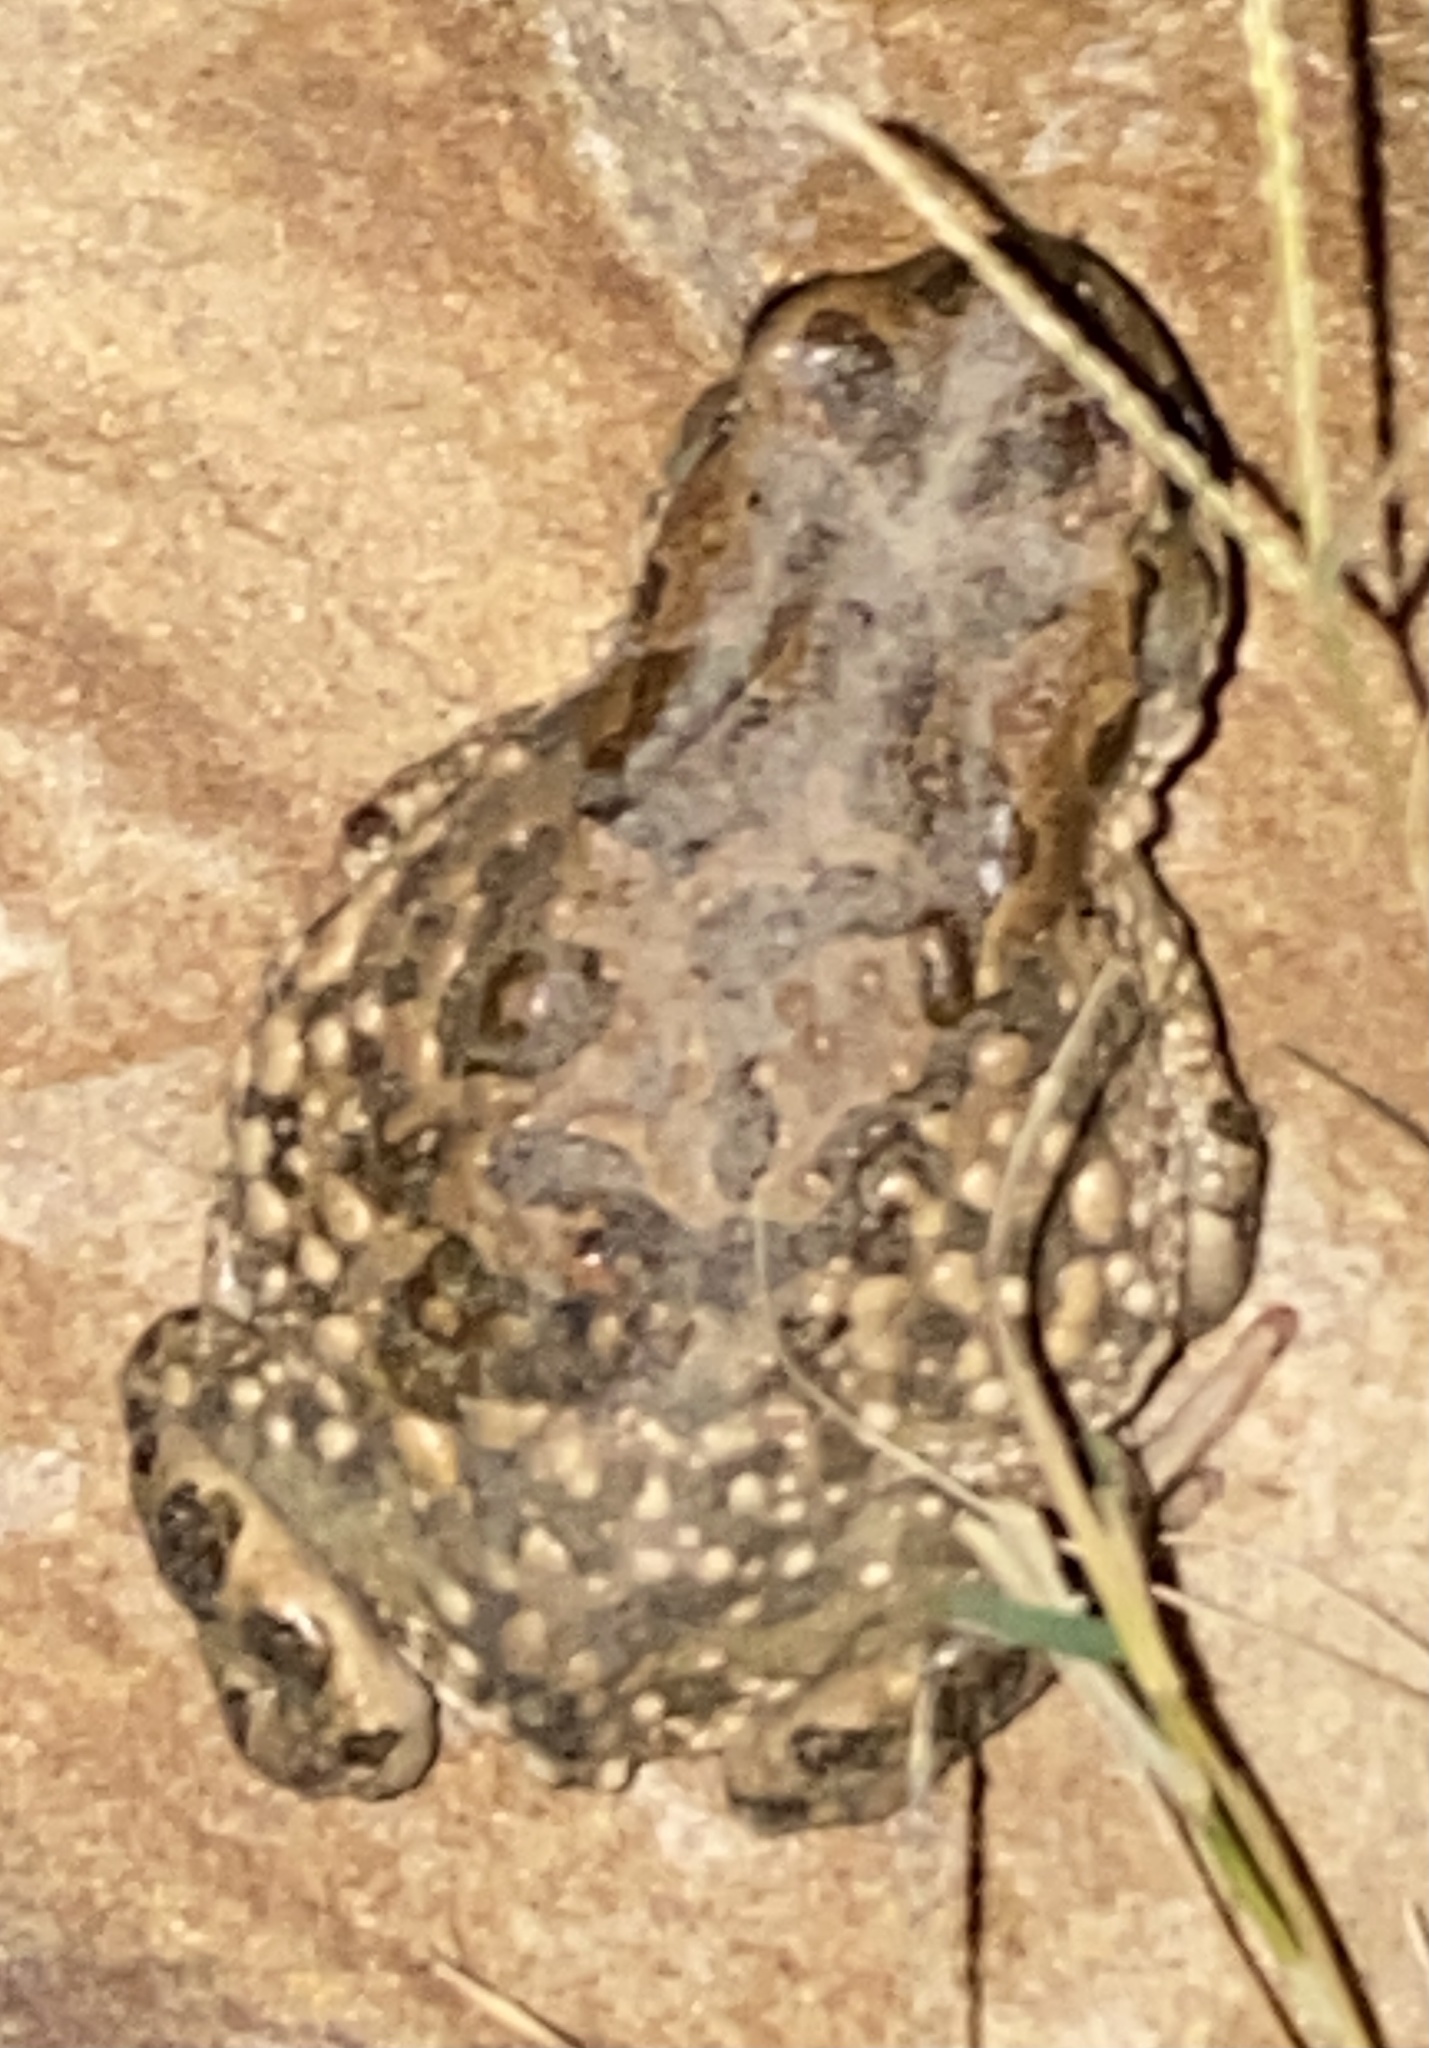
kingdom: Animalia
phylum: Chordata
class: Amphibia
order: Anura
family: Bufonidae
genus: Vandijkophrynus
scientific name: Vandijkophrynus gariepensis
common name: Gariep toad
